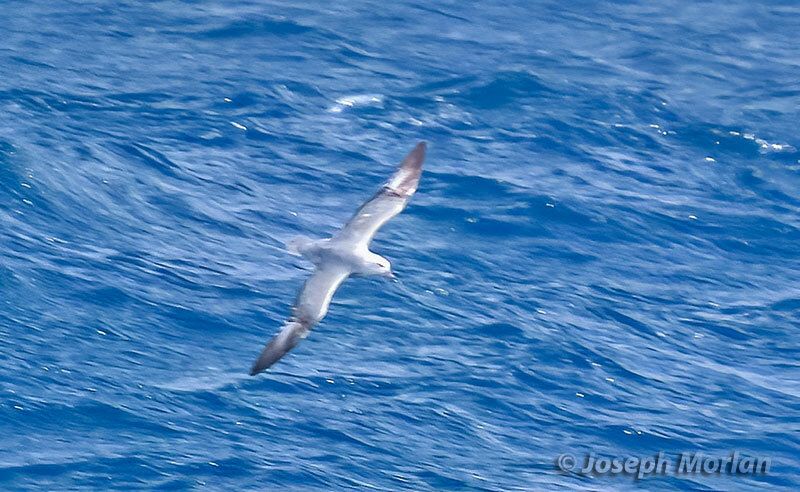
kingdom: Animalia
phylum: Chordata
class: Aves
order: Procellariiformes
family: Procellariidae
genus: Fulmarus
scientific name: Fulmarus glacialoides
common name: Southern fulmar
